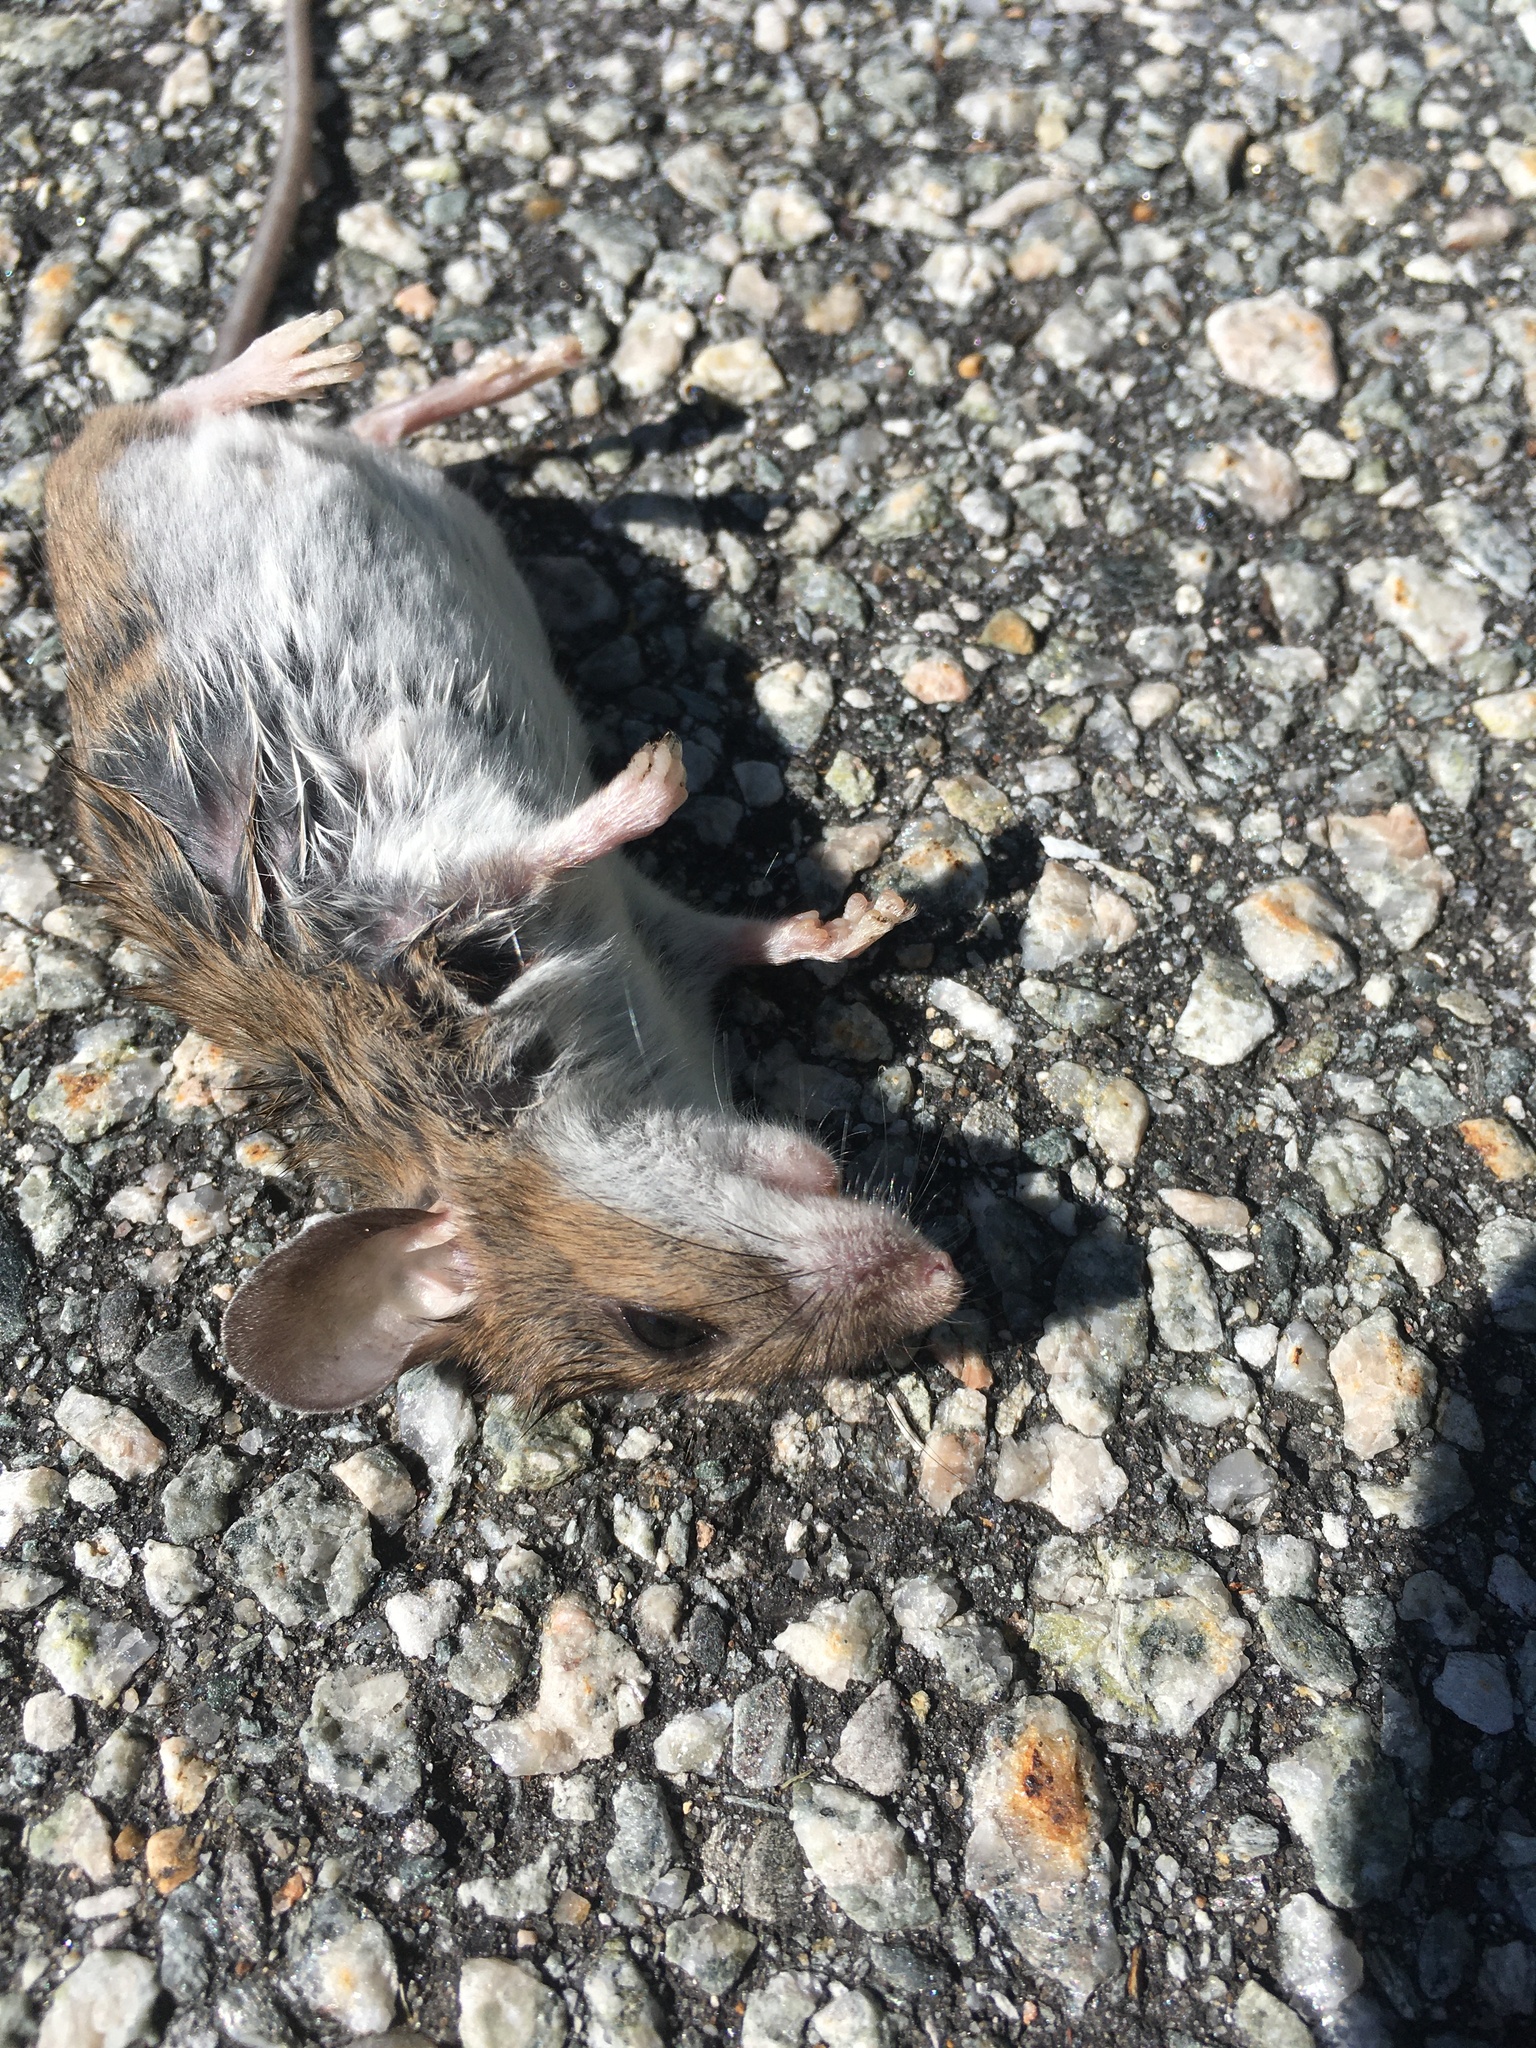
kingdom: Animalia
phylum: Chordata
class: Mammalia
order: Rodentia
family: Cricetidae
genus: Peromyscus
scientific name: Peromyscus leucopus
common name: White-footed deermouse
